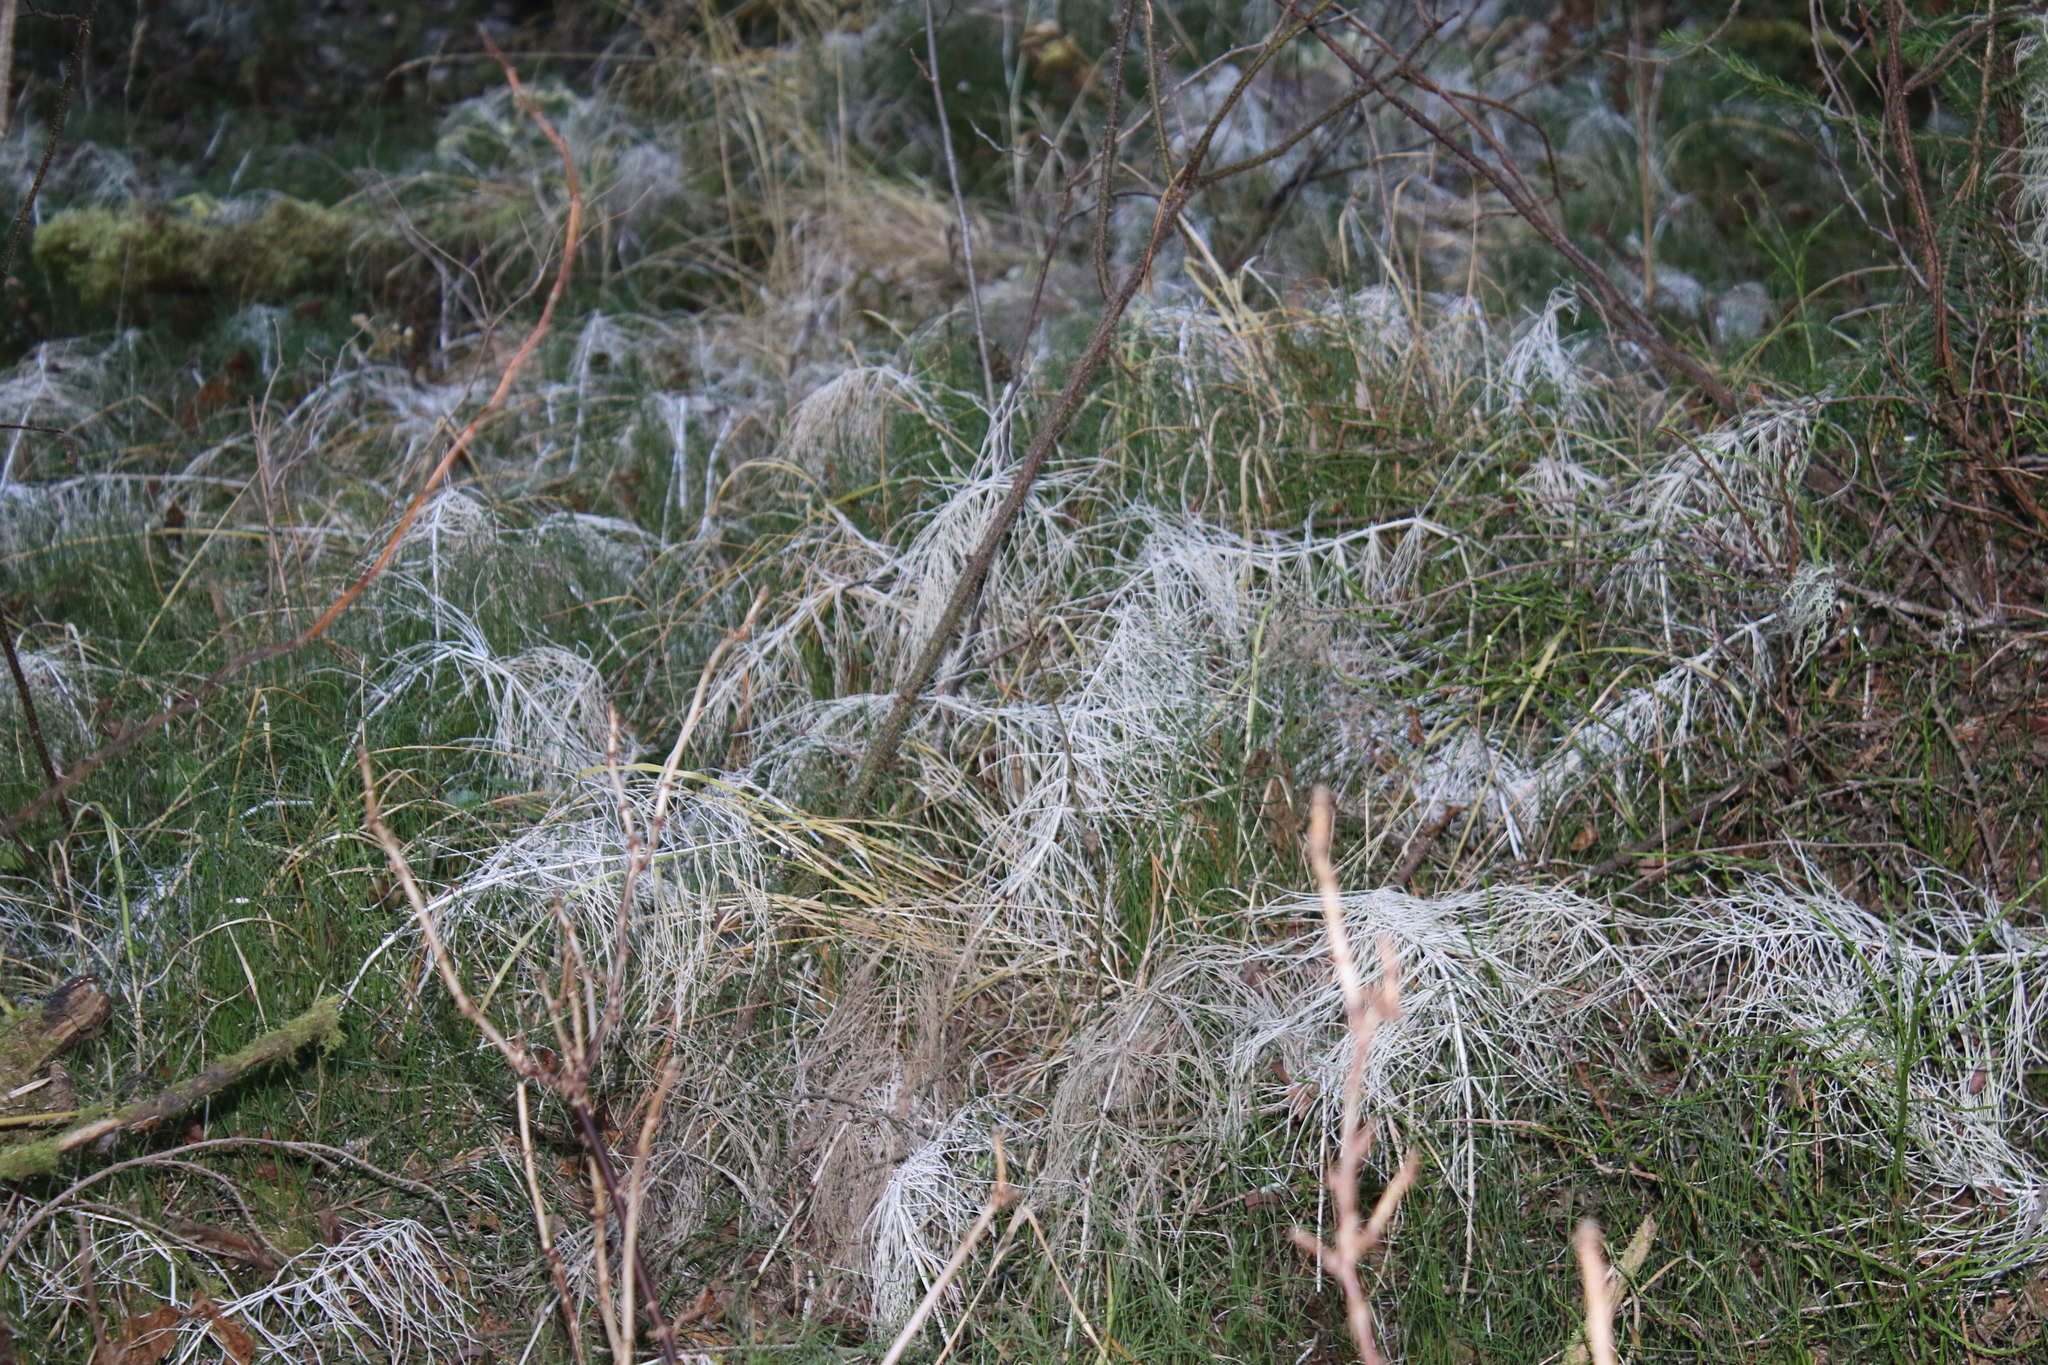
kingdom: Plantae
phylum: Tracheophyta
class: Polypodiopsida
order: Equisetales
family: Equisetaceae
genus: Equisetum
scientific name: Equisetum pratense
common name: Meadow horsetail
